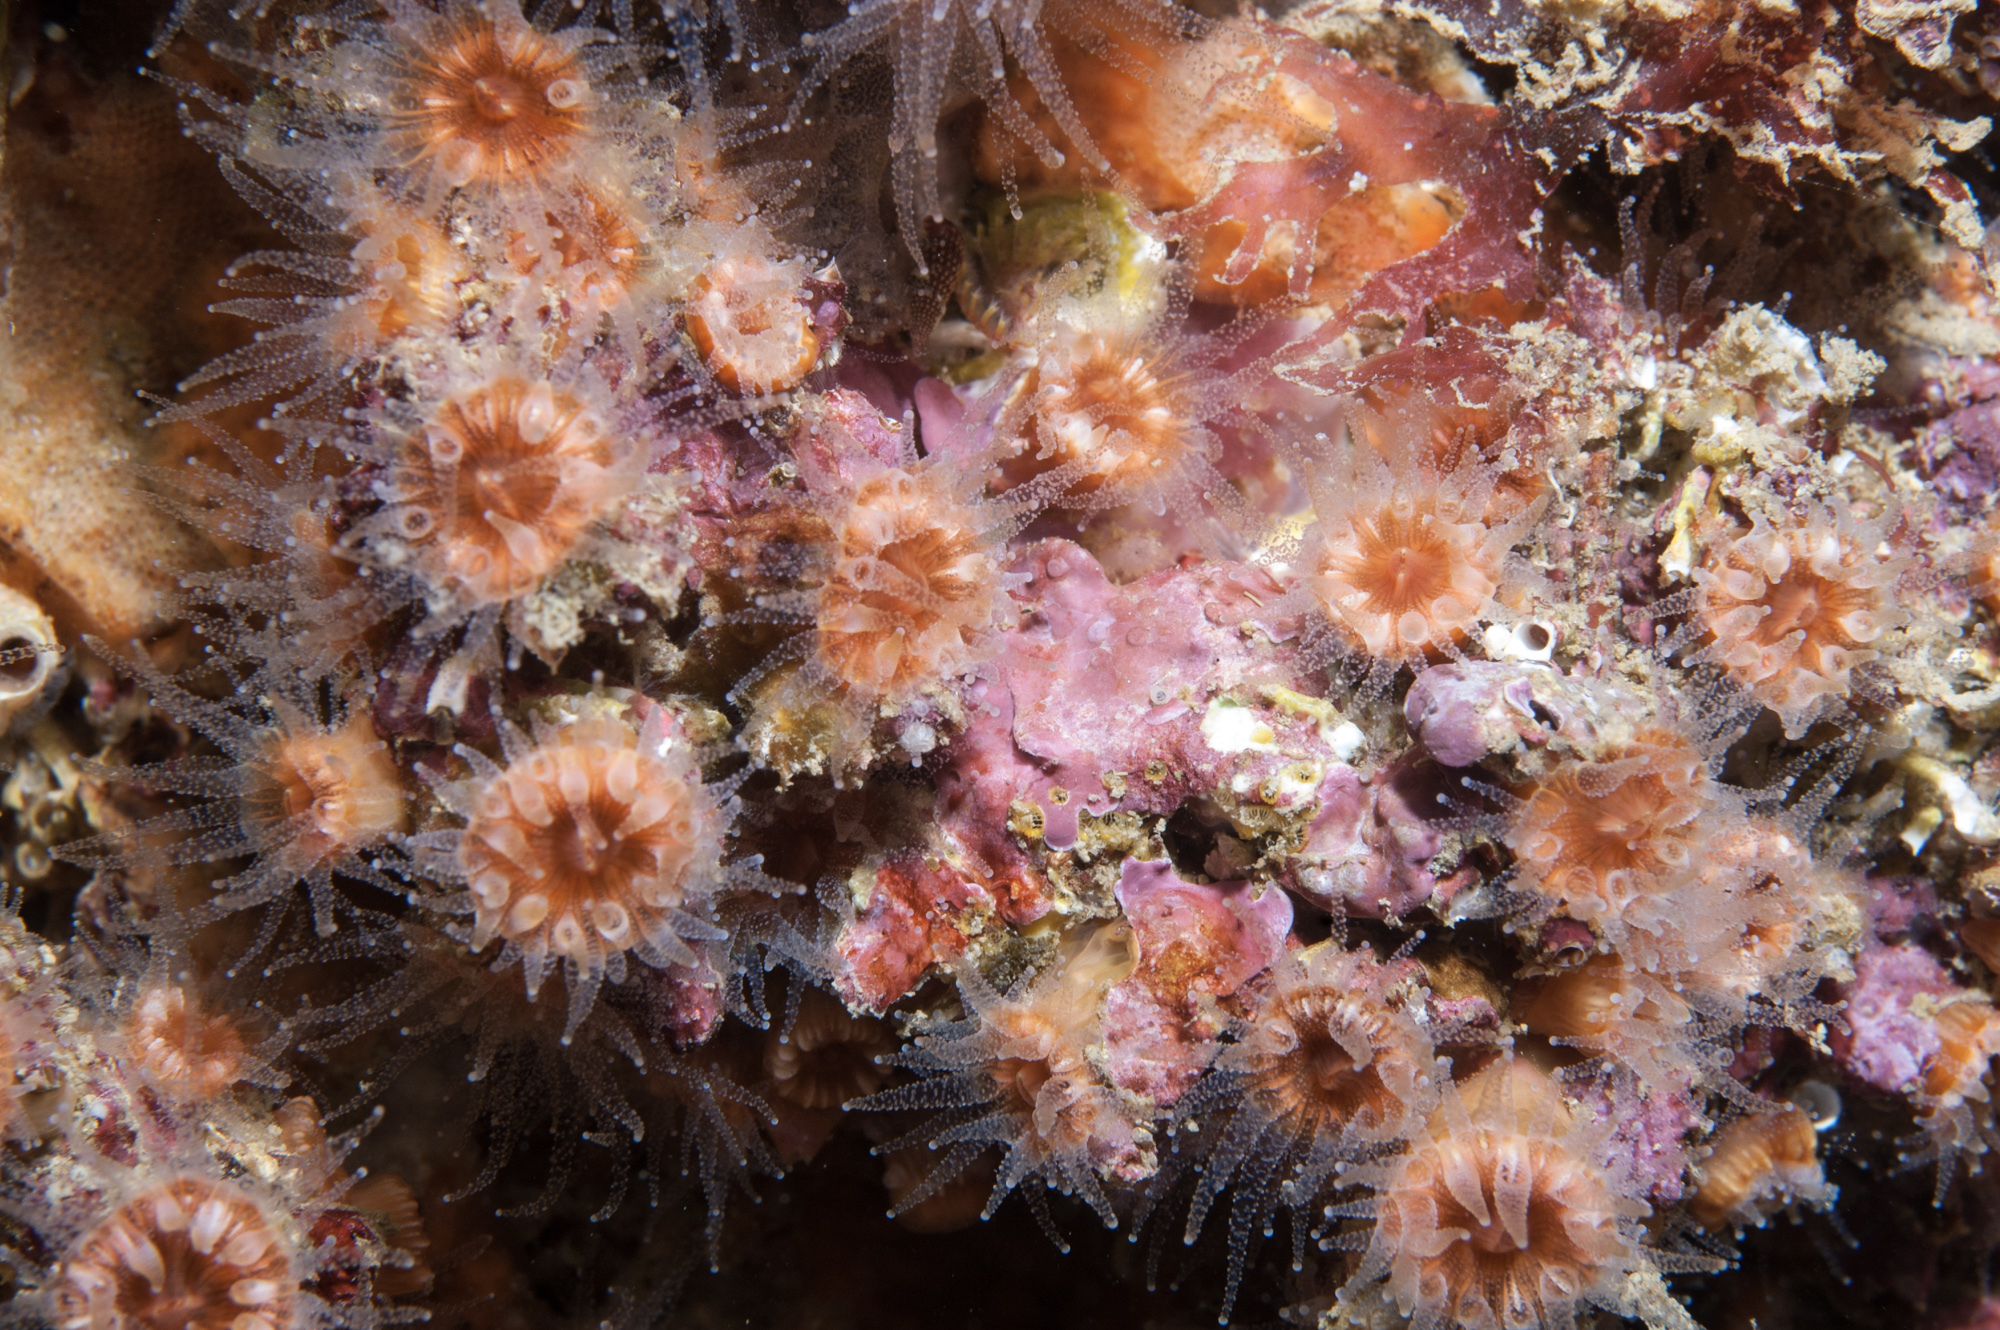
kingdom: Animalia
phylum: Cnidaria
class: Anthozoa
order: Scleractinia
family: Caryophylliidae
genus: Caryophyllia
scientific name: Caryophyllia inornata
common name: Circular cupcoral
